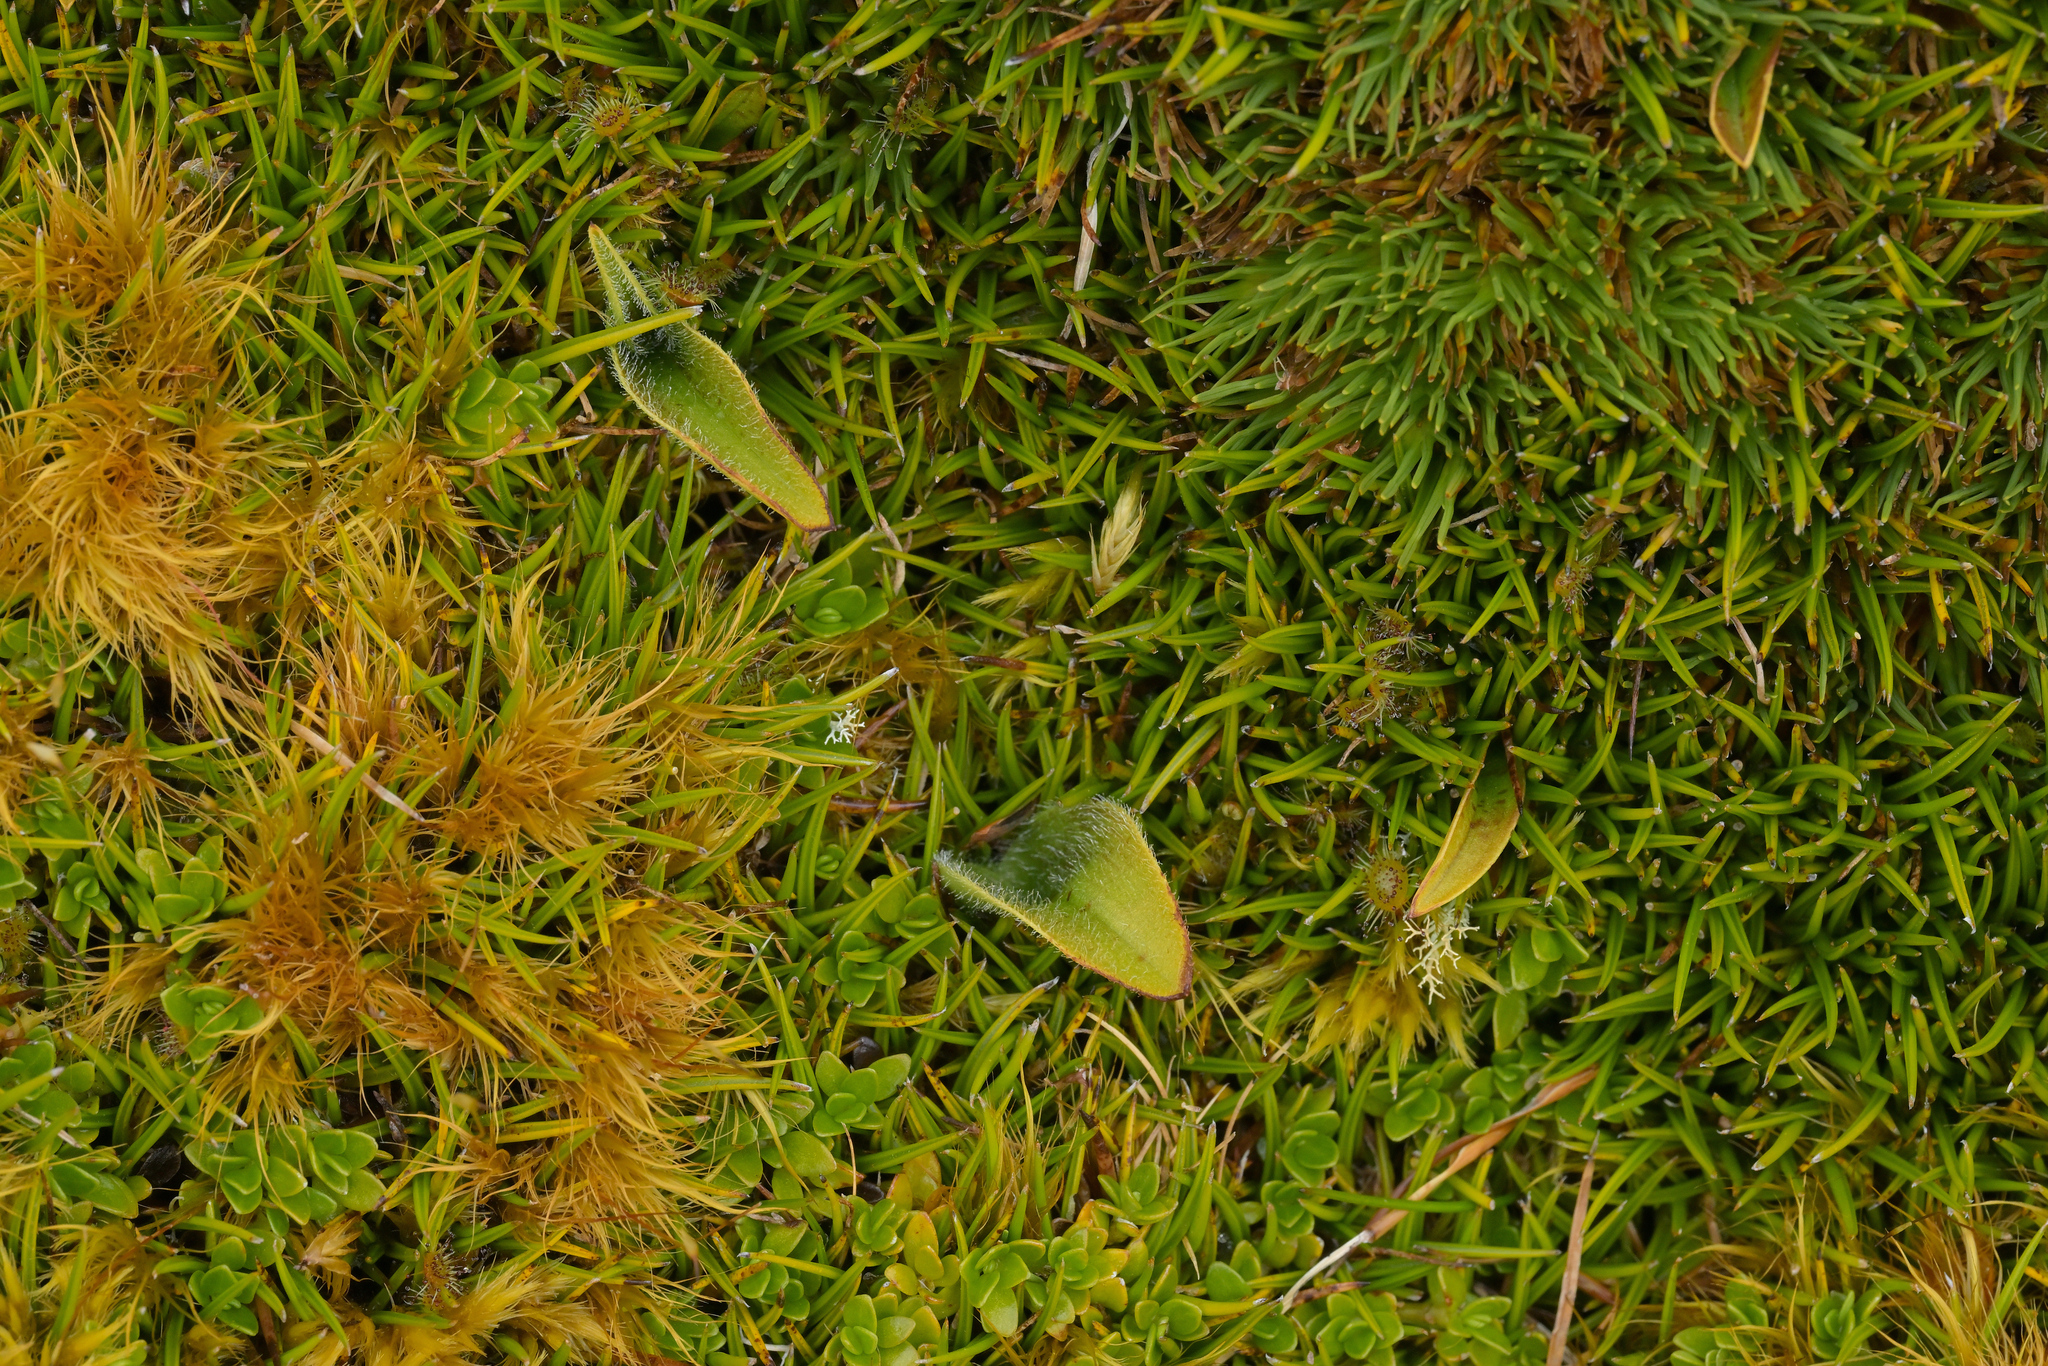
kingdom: Plantae
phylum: Tracheophyta
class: Liliopsida
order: Asparagales
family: Orchidaceae
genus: Aporostylis
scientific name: Aporostylis bifolia
